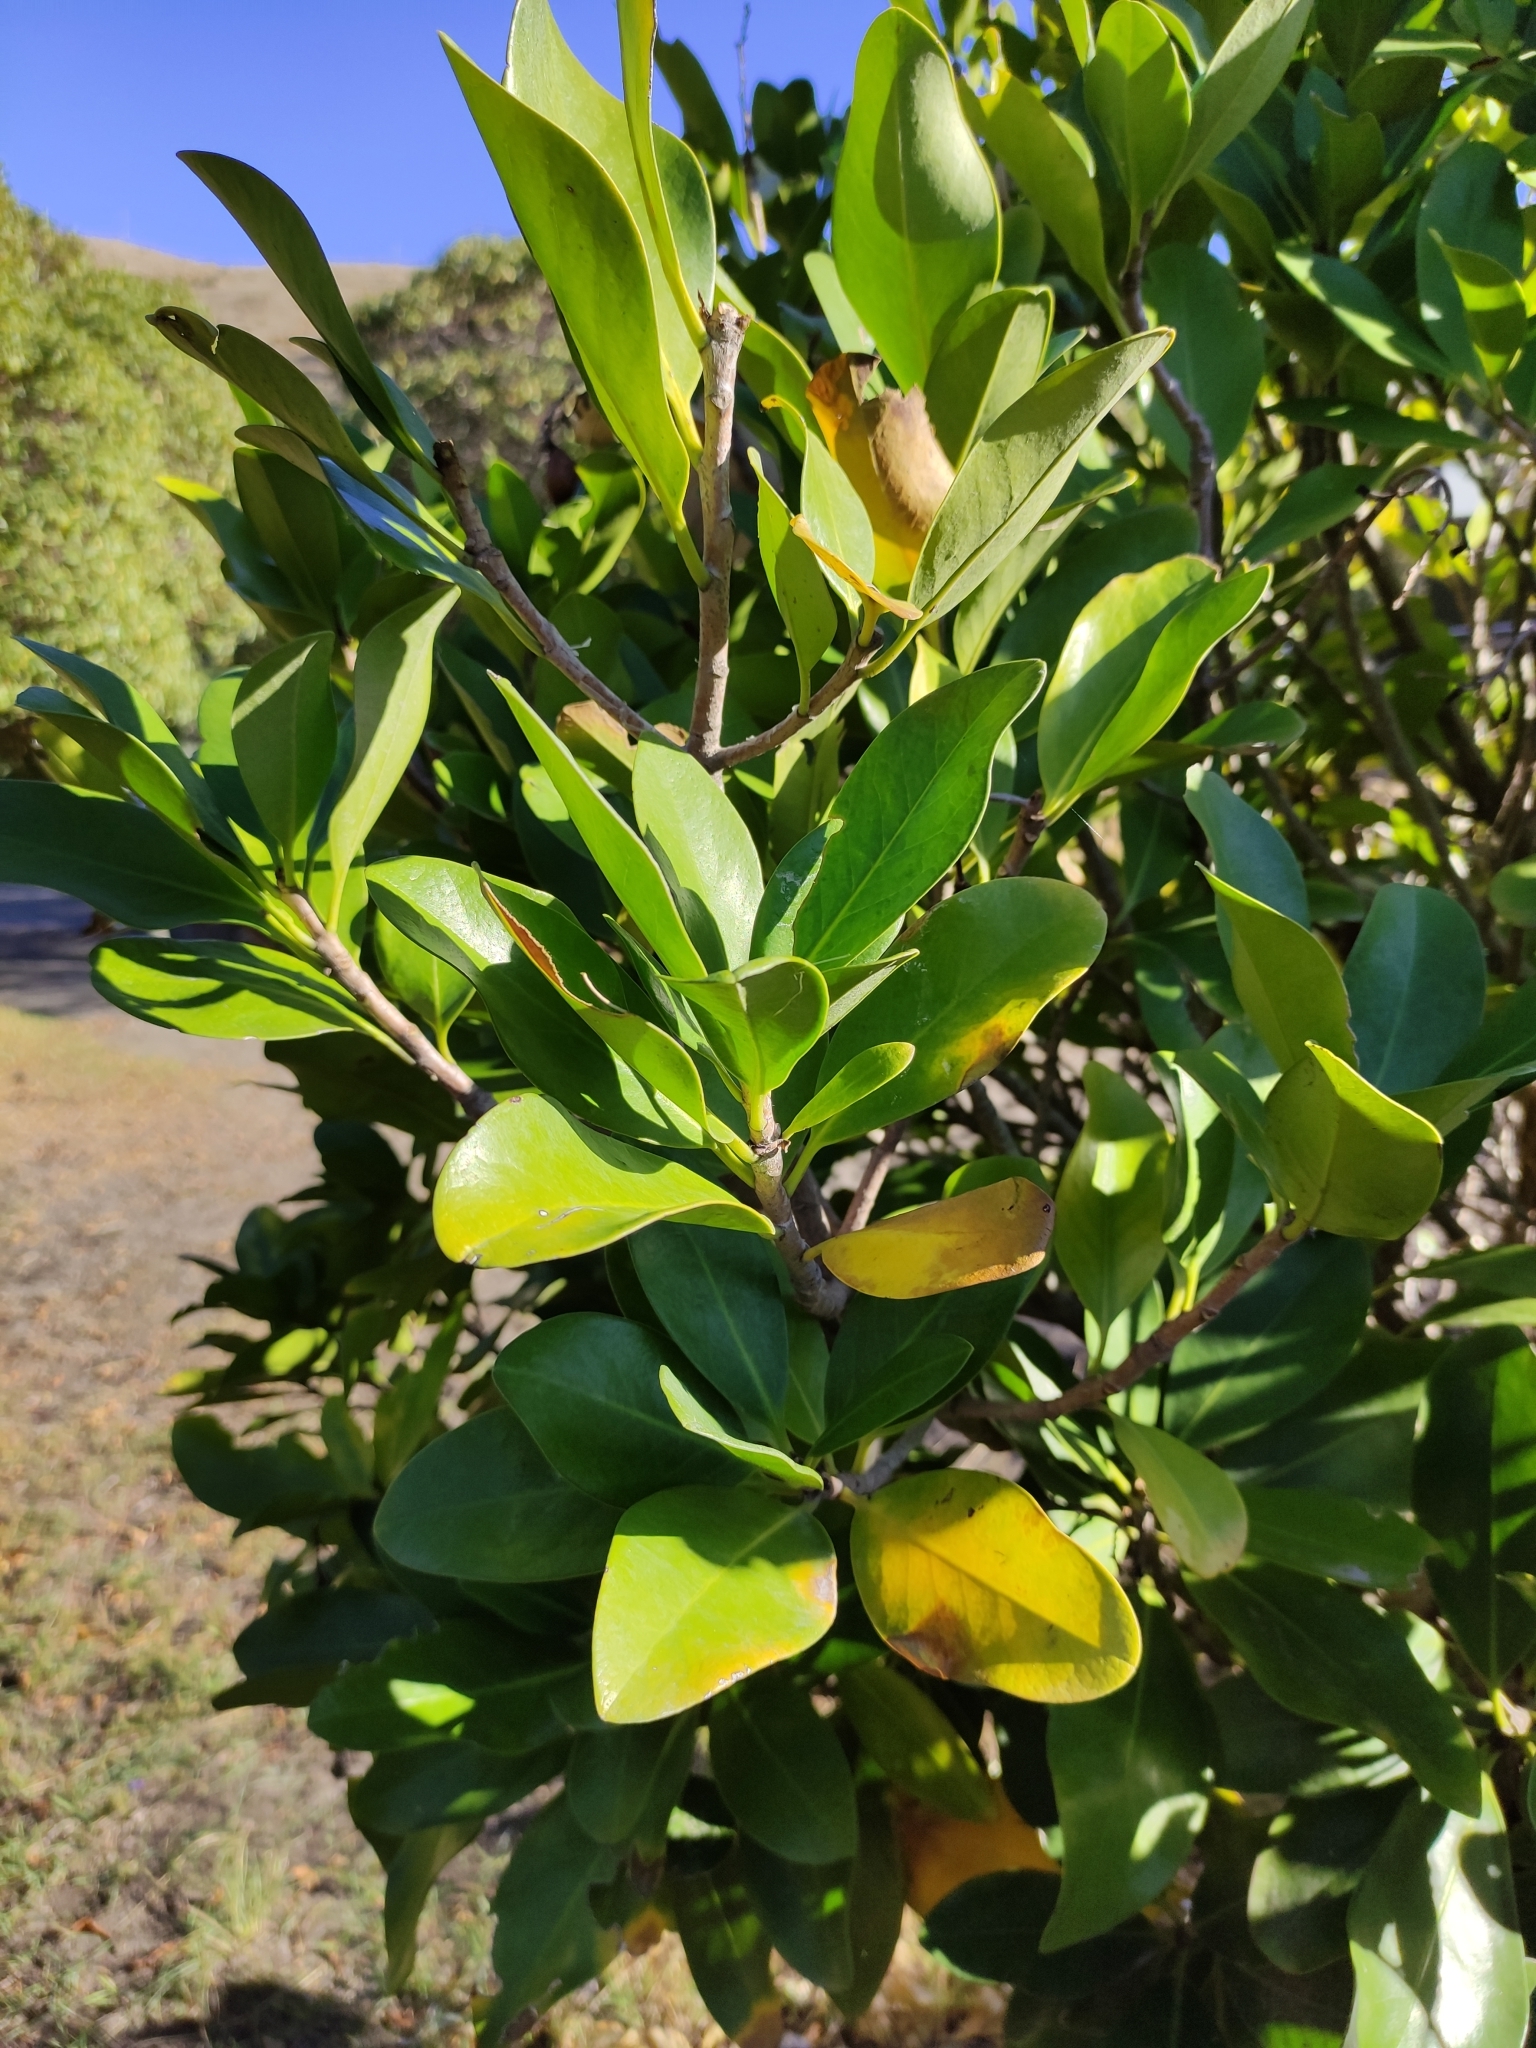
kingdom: Plantae
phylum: Tracheophyta
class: Magnoliopsida
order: Cucurbitales
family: Corynocarpaceae
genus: Corynocarpus
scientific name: Corynocarpus laevigatus
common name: New zealand laurel
